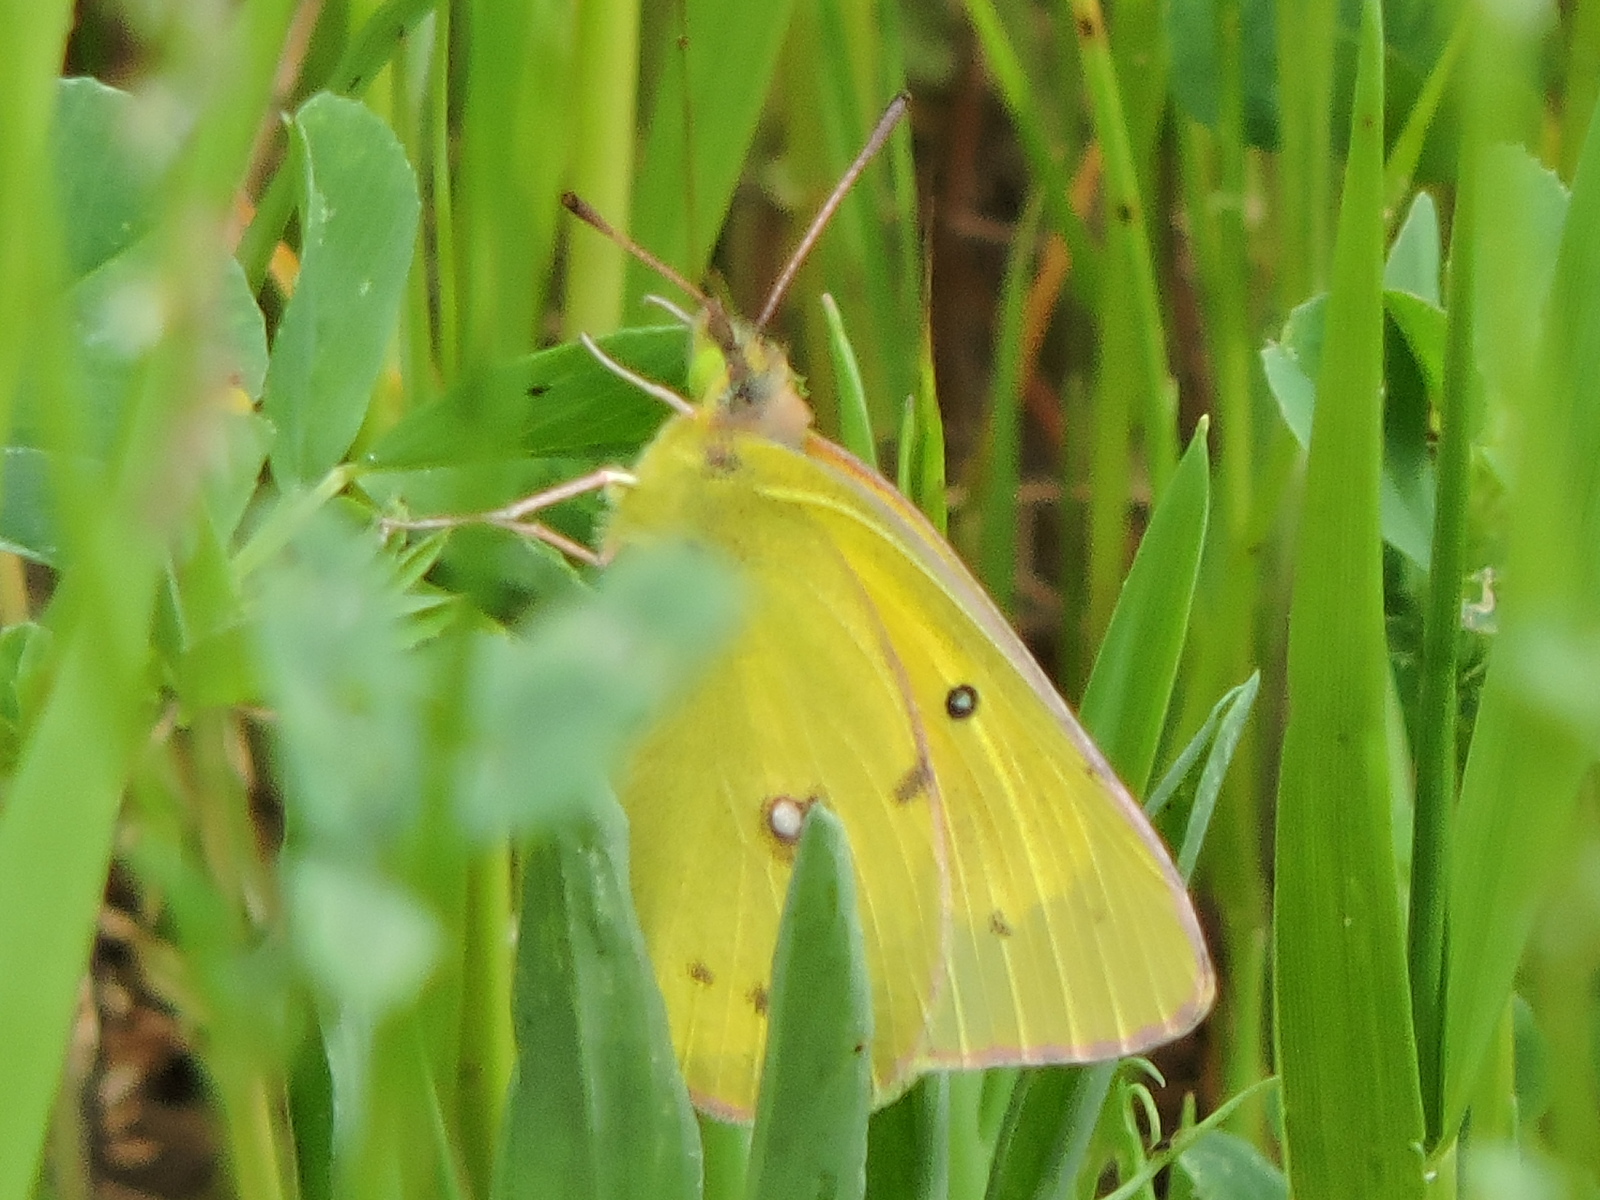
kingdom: Animalia
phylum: Arthropoda
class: Insecta
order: Lepidoptera
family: Pieridae
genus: Colias
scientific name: Colias eurytheme
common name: Alfalfa butterfly
